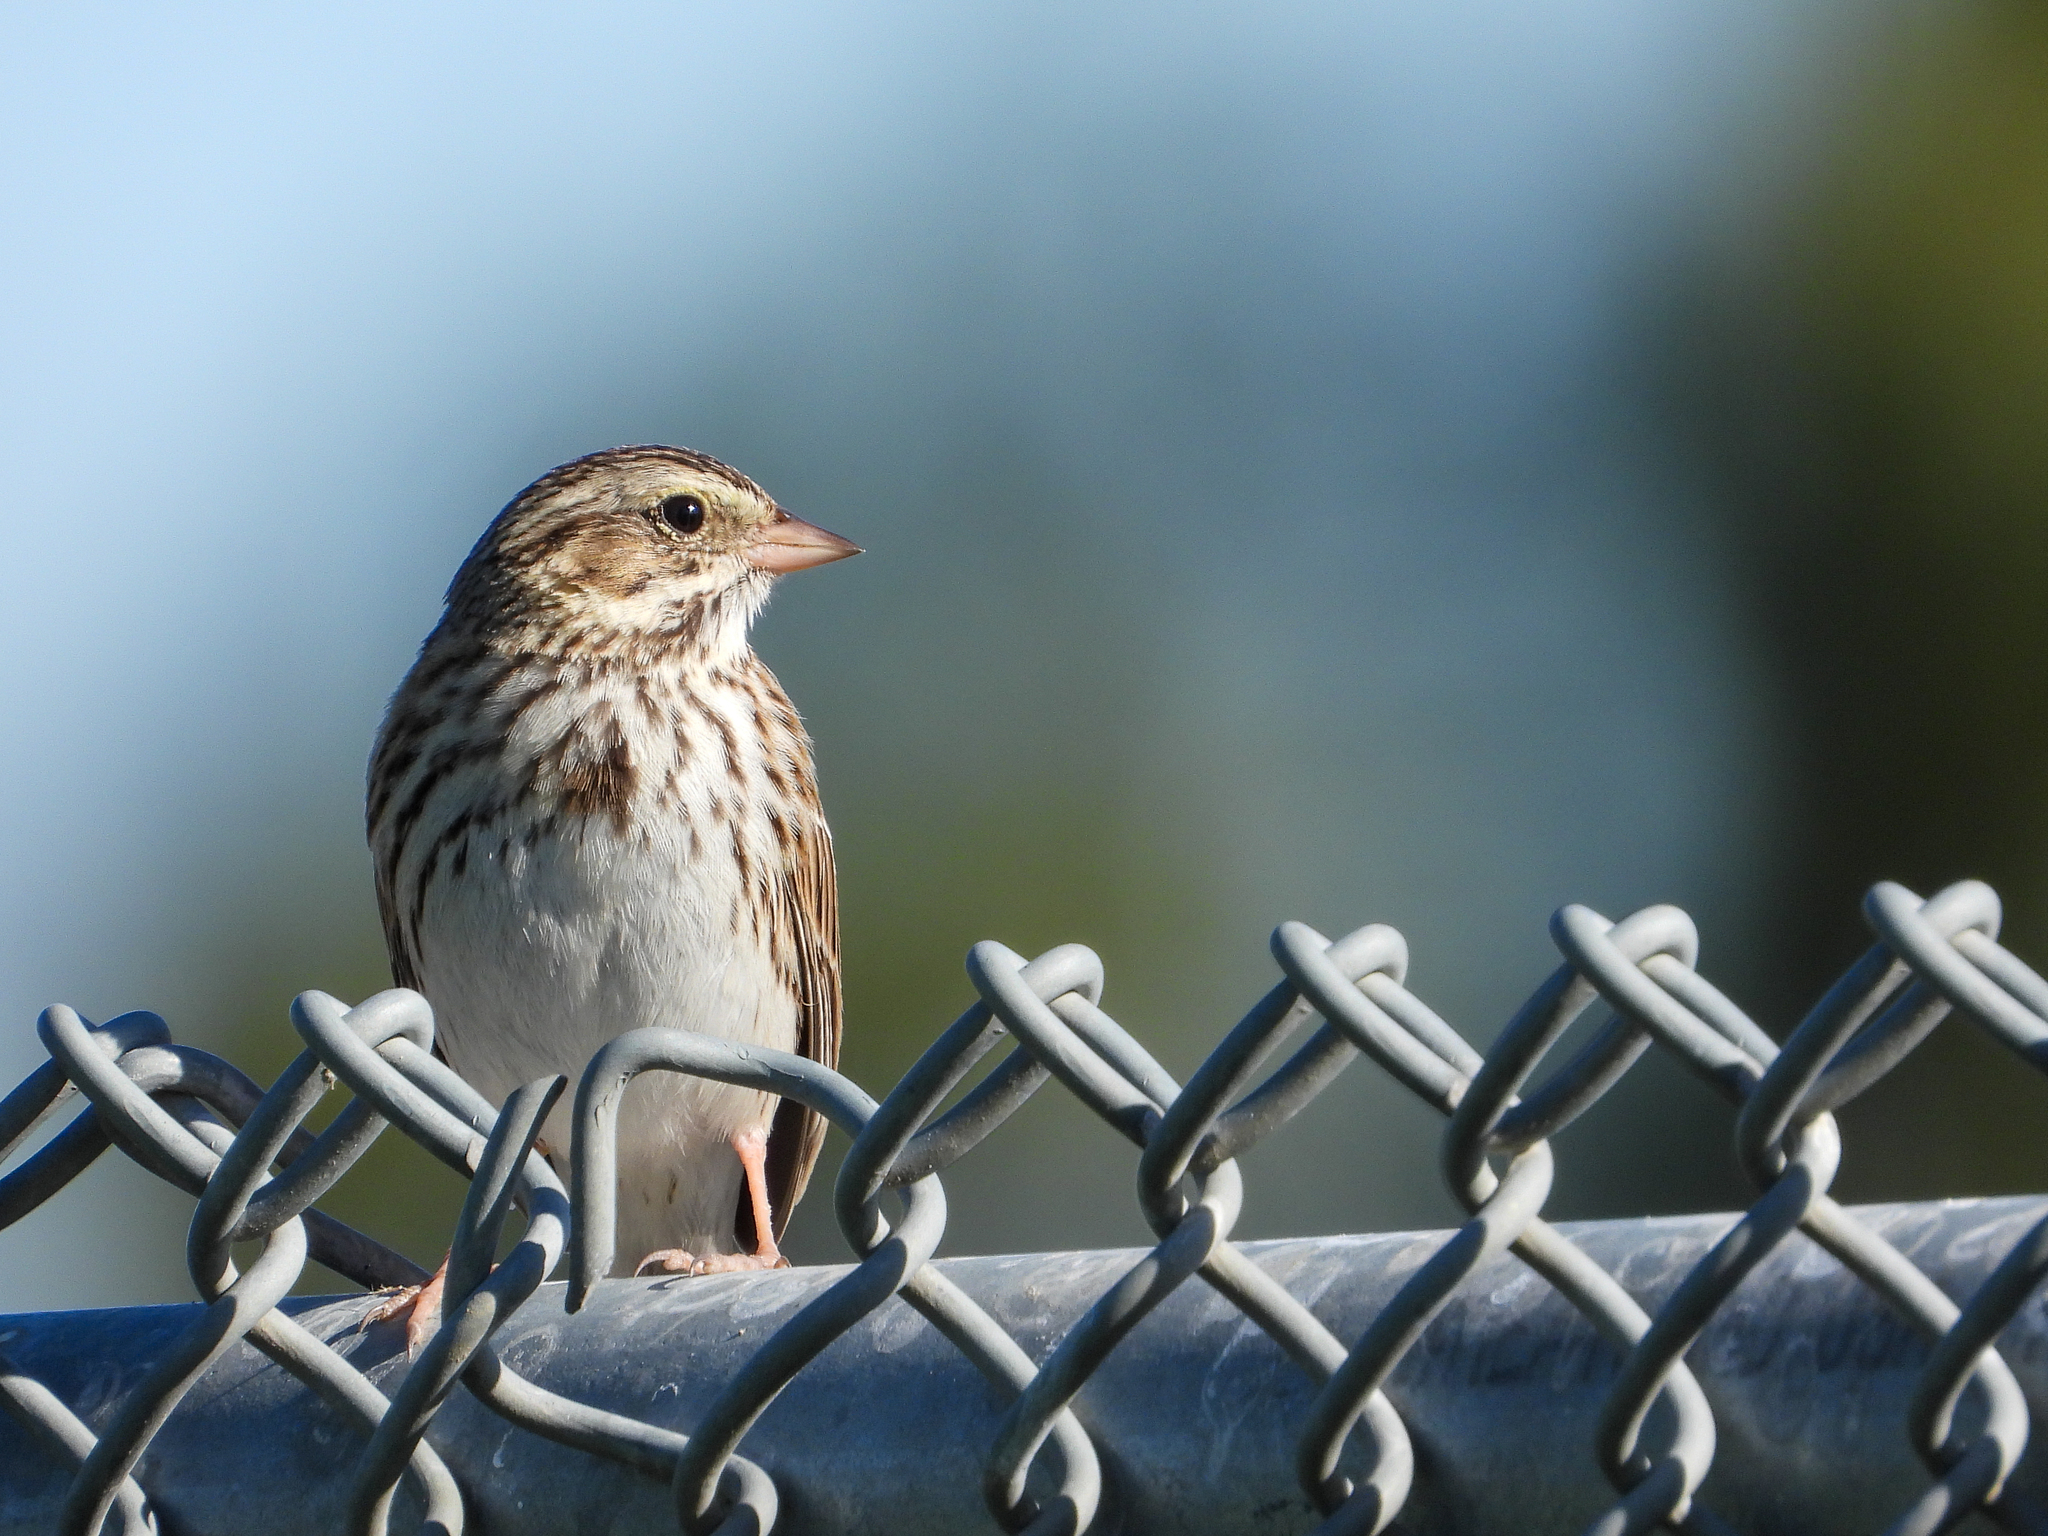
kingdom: Animalia
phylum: Chordata
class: Aves
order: Passeriformes
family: Passerellidae
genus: Passerculus
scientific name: Passerculus sandwichensis
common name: Savannah sparrow
